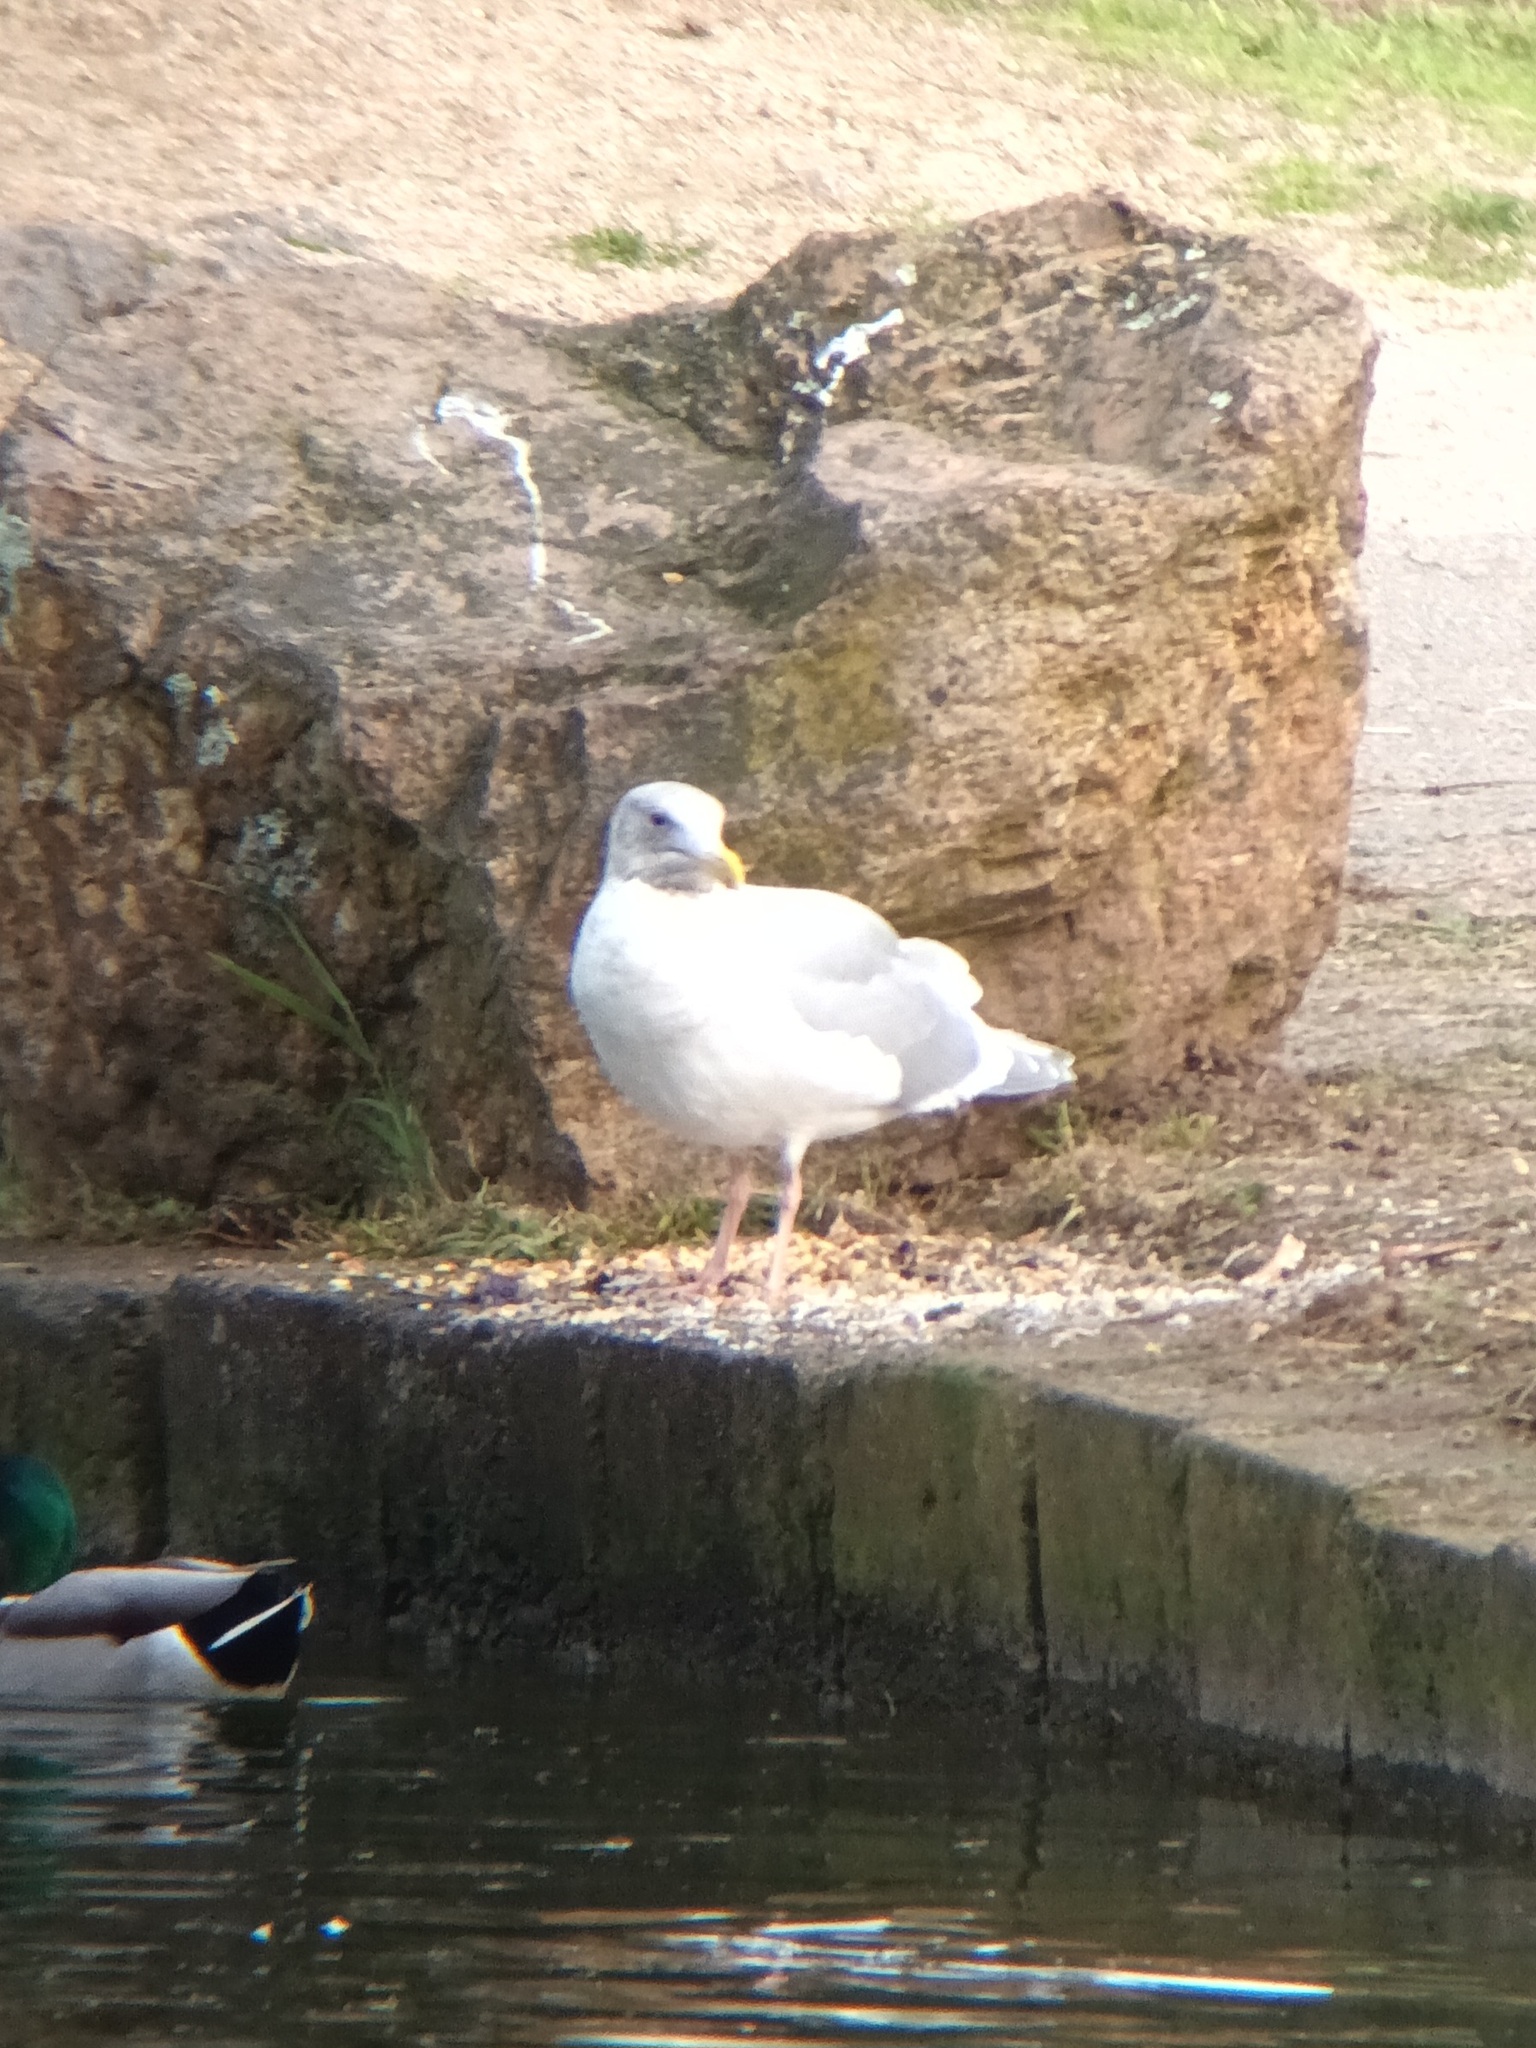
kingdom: Animalia
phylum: Chordata
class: Aves
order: Charadriiformes
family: Laridae
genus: Larus
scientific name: Larus glaucescens
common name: Glaucous-winged gull
